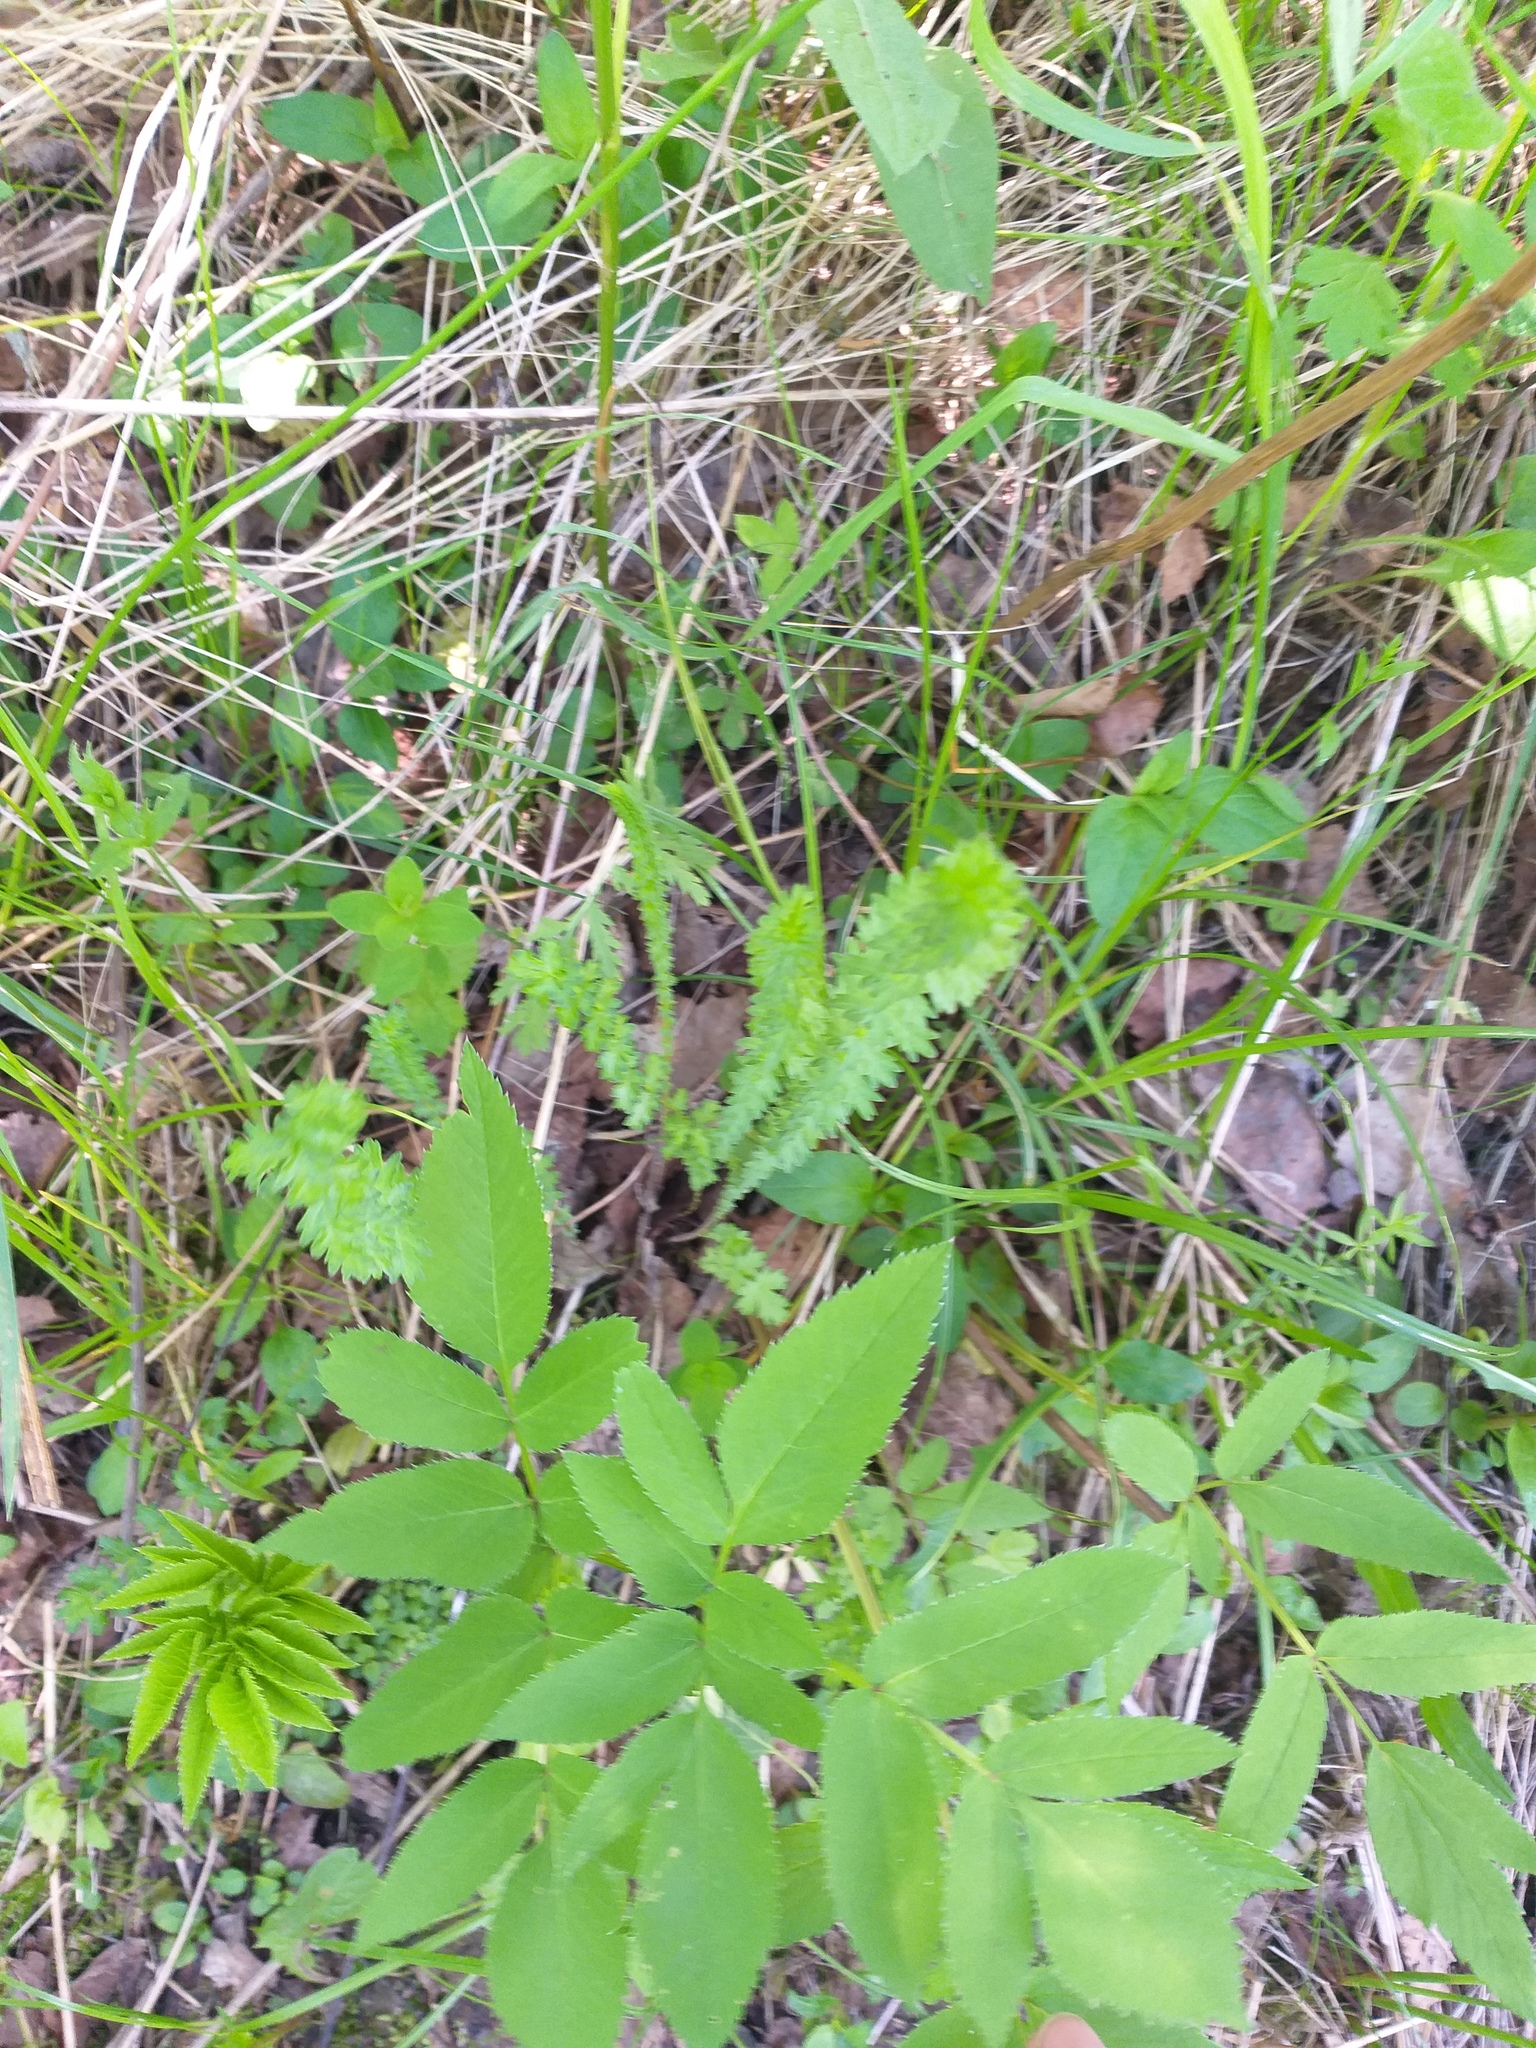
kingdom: Plantae
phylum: Tracheophyta
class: Magnoliopsida
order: Rosales
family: Rosaceae
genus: Filipendula
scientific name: Filipendula vulgaris
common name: Dropwort
